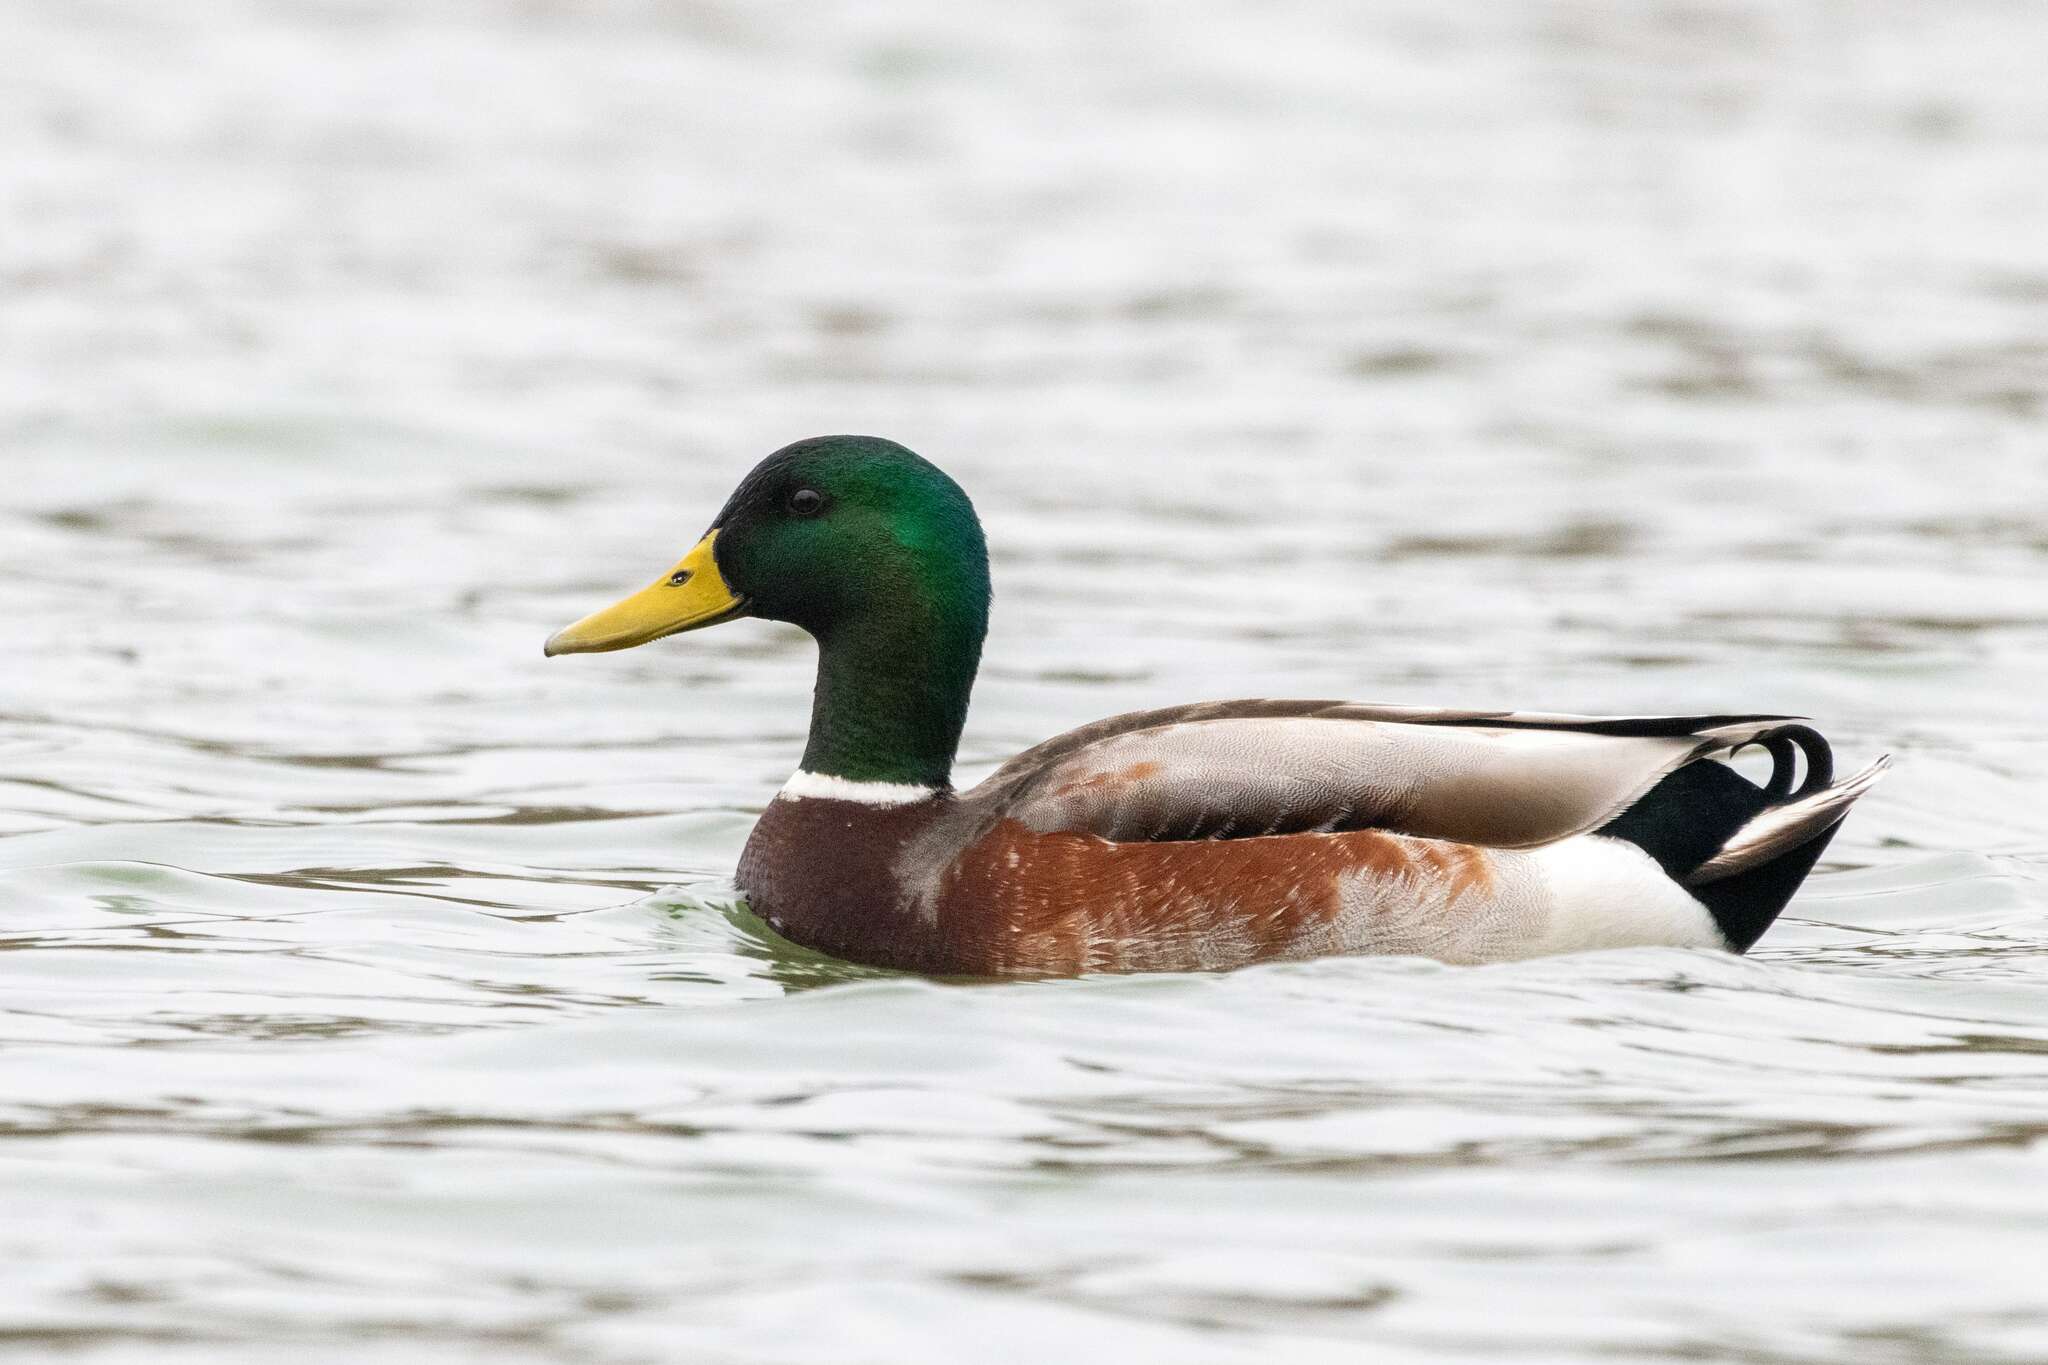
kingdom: Animalia
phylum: Chordata
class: Aves
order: Anseriformes
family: Anatidae
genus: Anas
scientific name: Anas platyrhynchos
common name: Mallard
